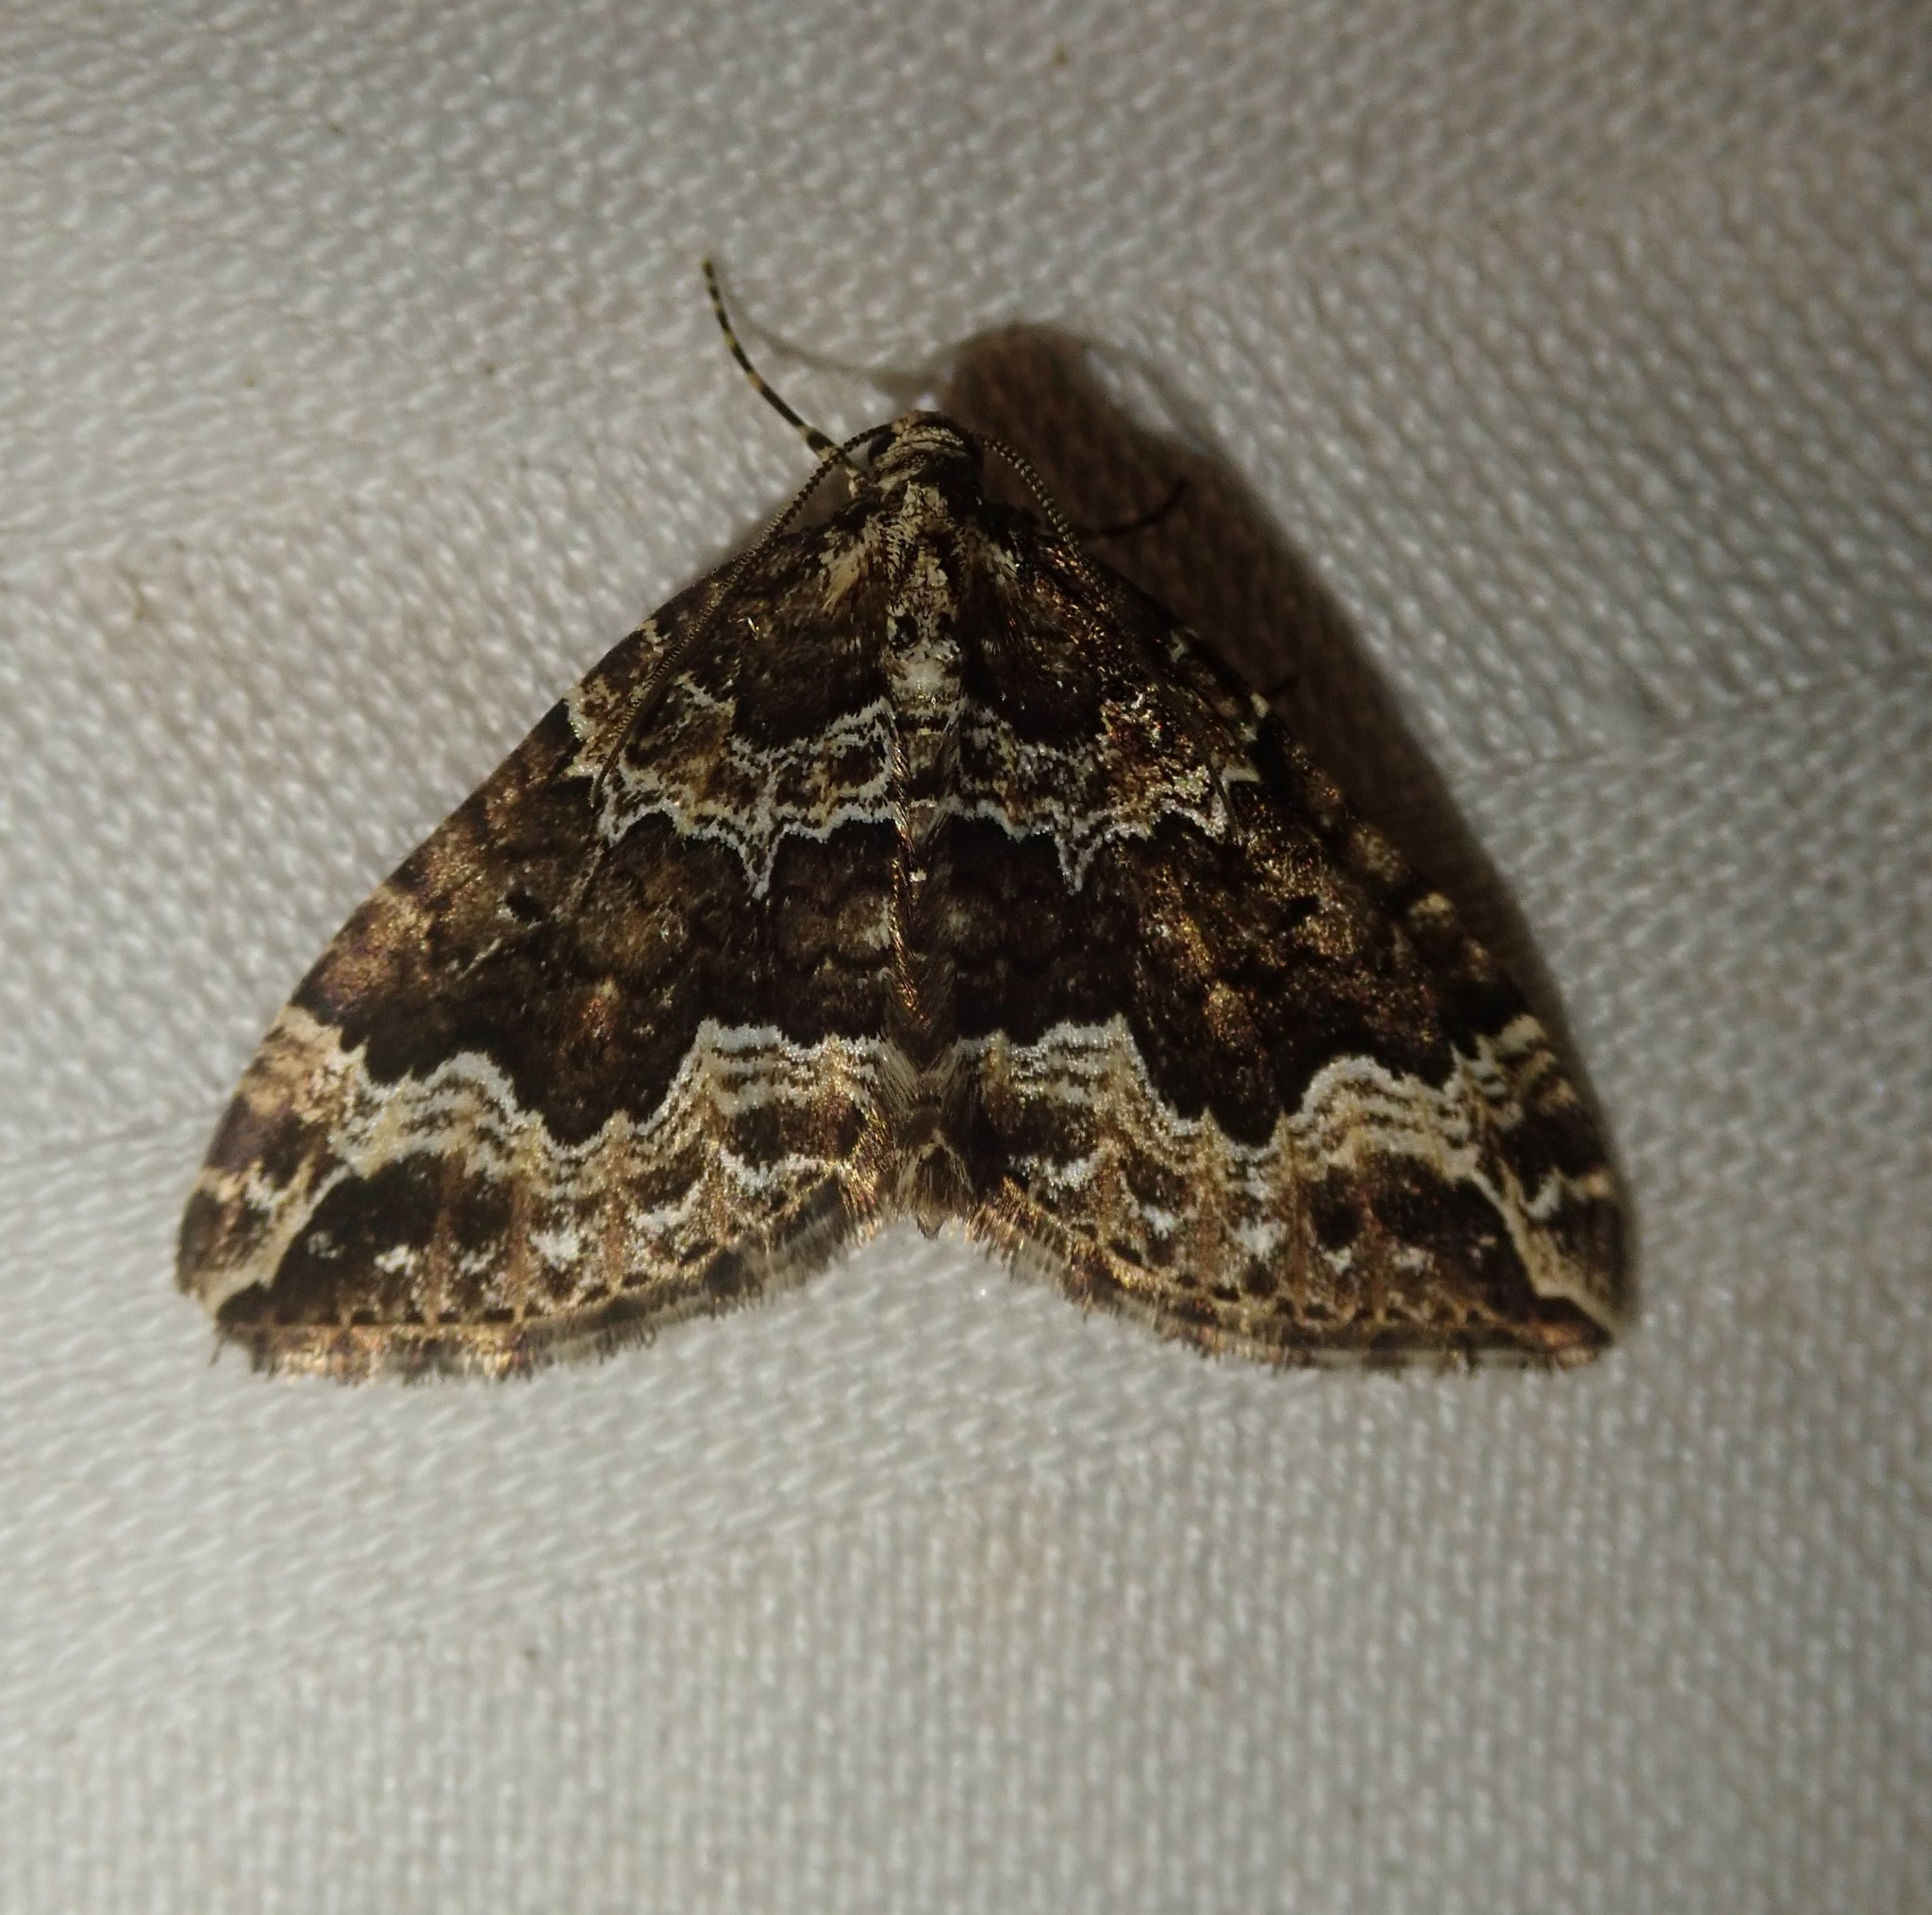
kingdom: Animalia
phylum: Arthropoda
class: Insecta
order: Lepidoptera
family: Geometridae
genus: Lampropteryx
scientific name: Lampropteryx suffumata
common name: Water carpet
